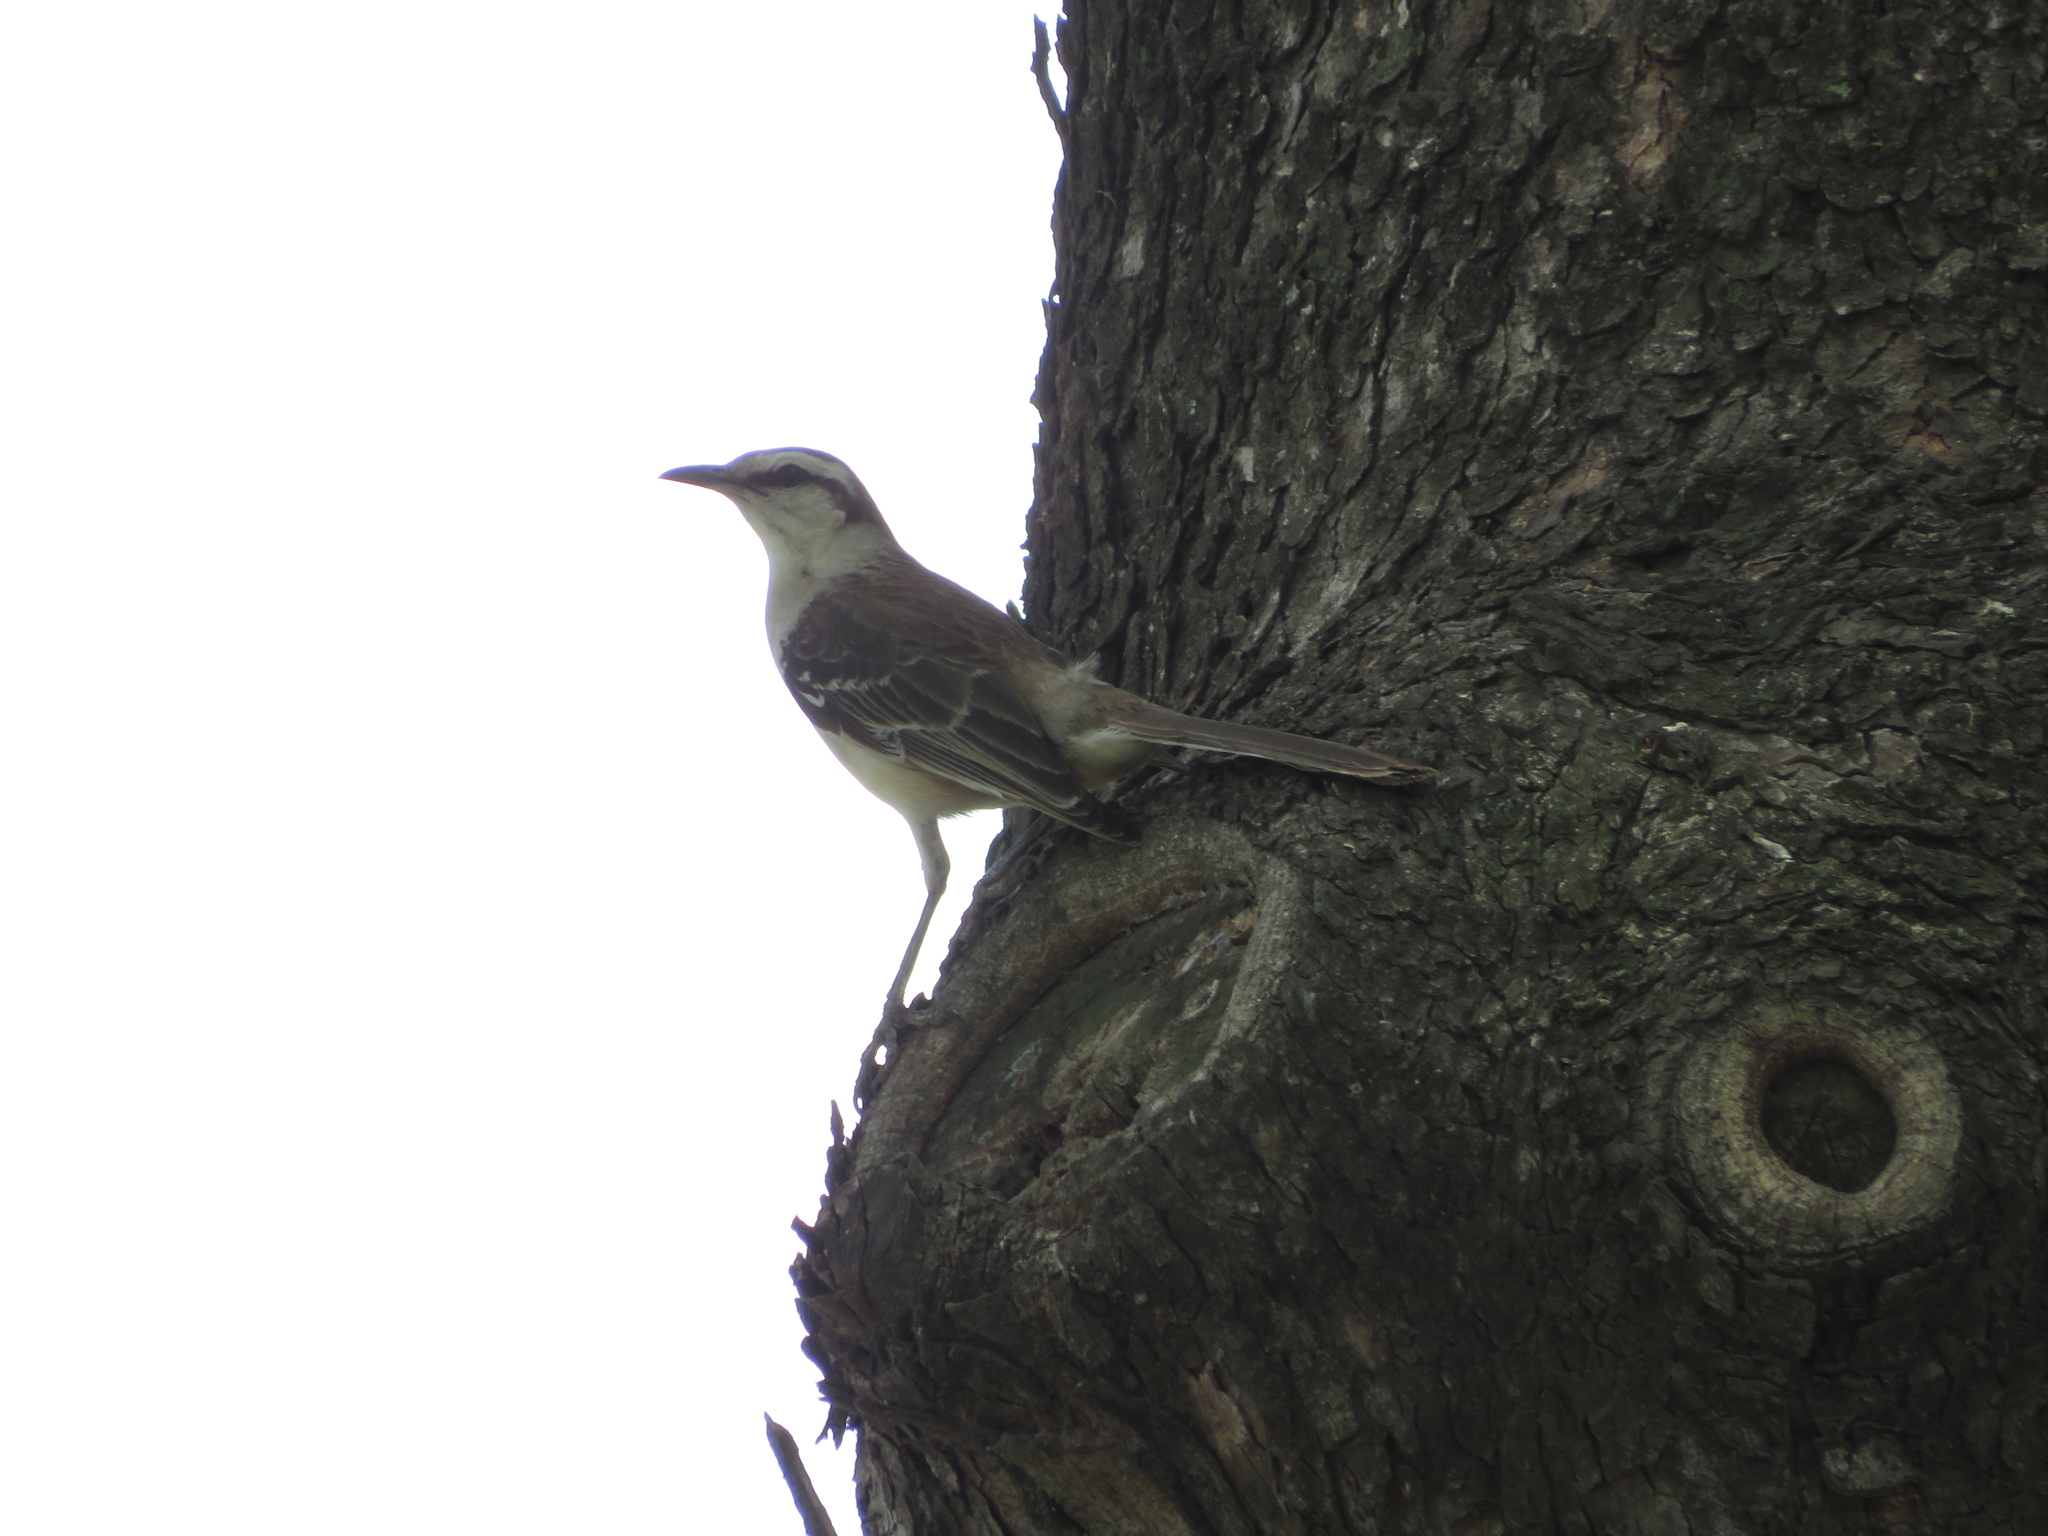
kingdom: Animalia
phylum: Chordata
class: Aves
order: Passeriformes
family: Mimidae
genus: Mimus
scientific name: Mimus saturninus
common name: Chalk-browed mockingbird
